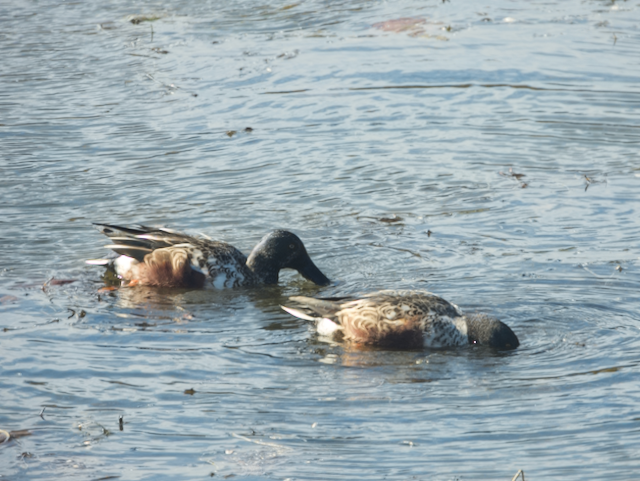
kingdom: Animalia
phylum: Chordata
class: Aves
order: Anseriformes
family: Anatidae
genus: Spatula
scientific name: Spatula clypeata
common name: Northern shoveler
